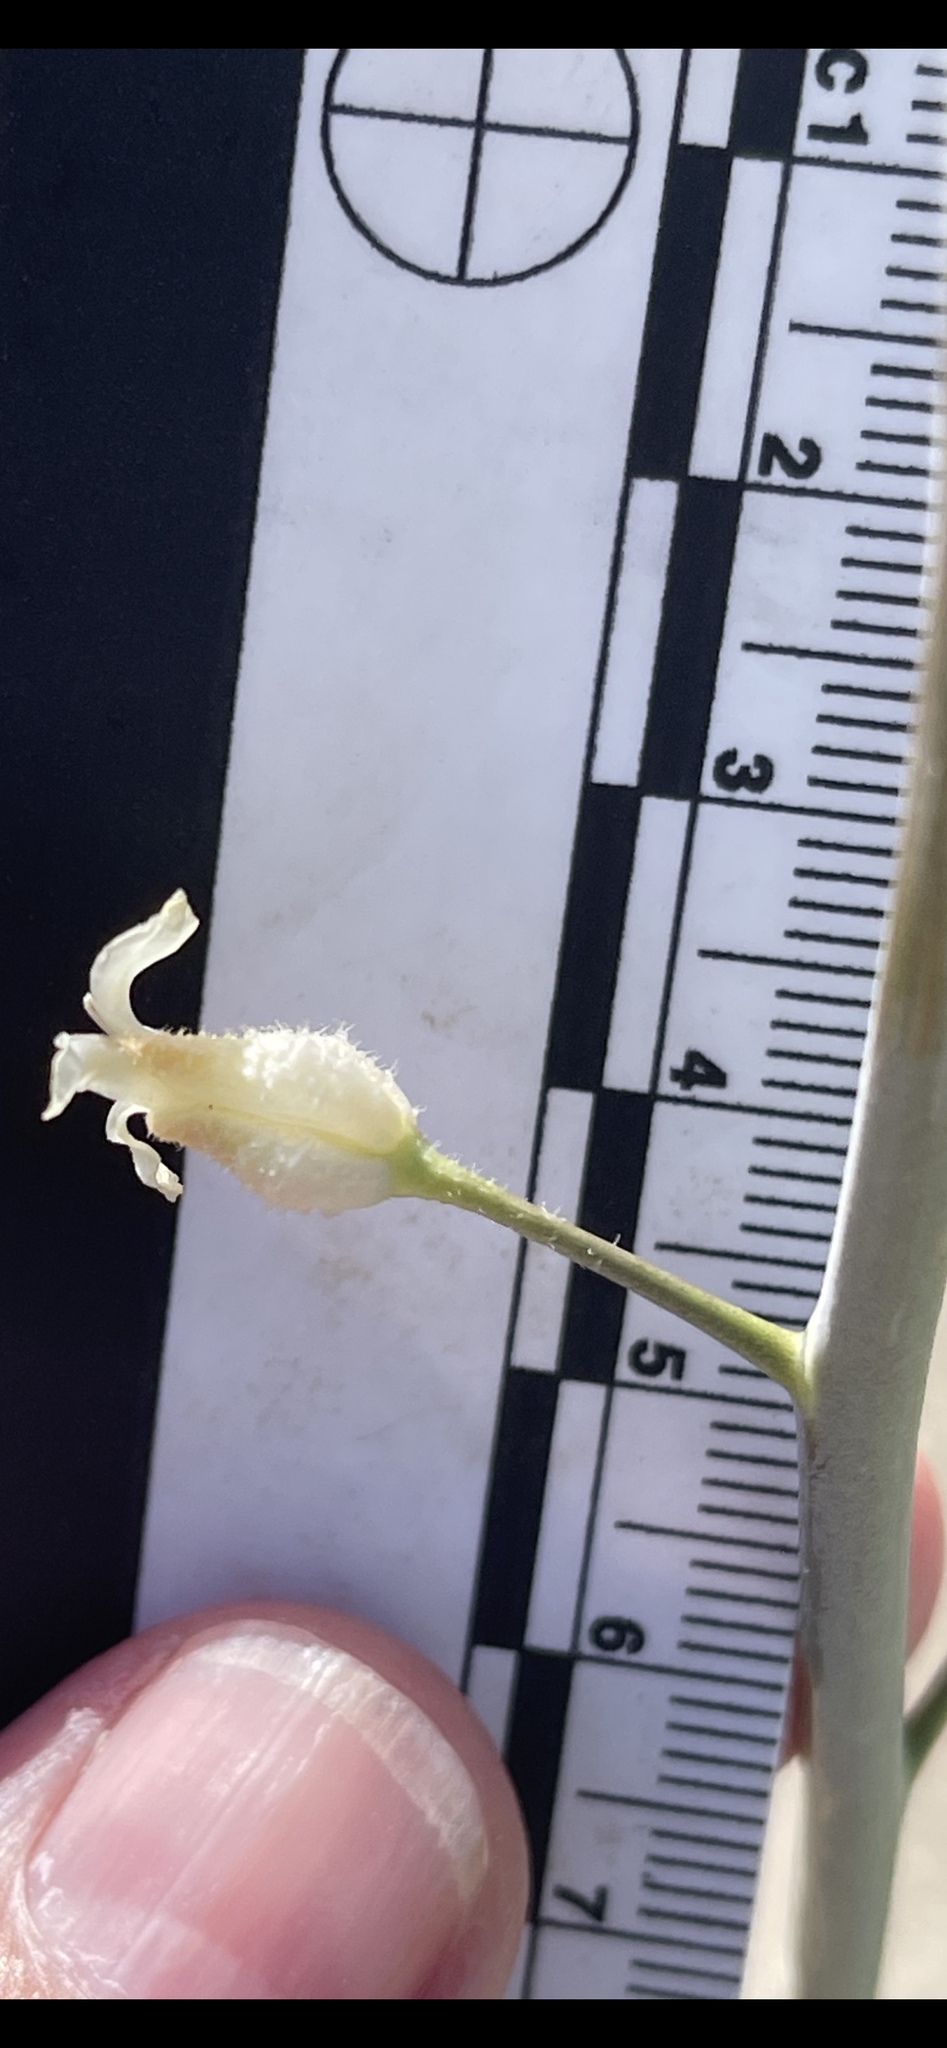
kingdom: Plantae
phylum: Tracheophyta
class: Magnoliopsida
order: Brassicales
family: Brassicaceae
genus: Streptanthus
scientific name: Streptanthus hallii
